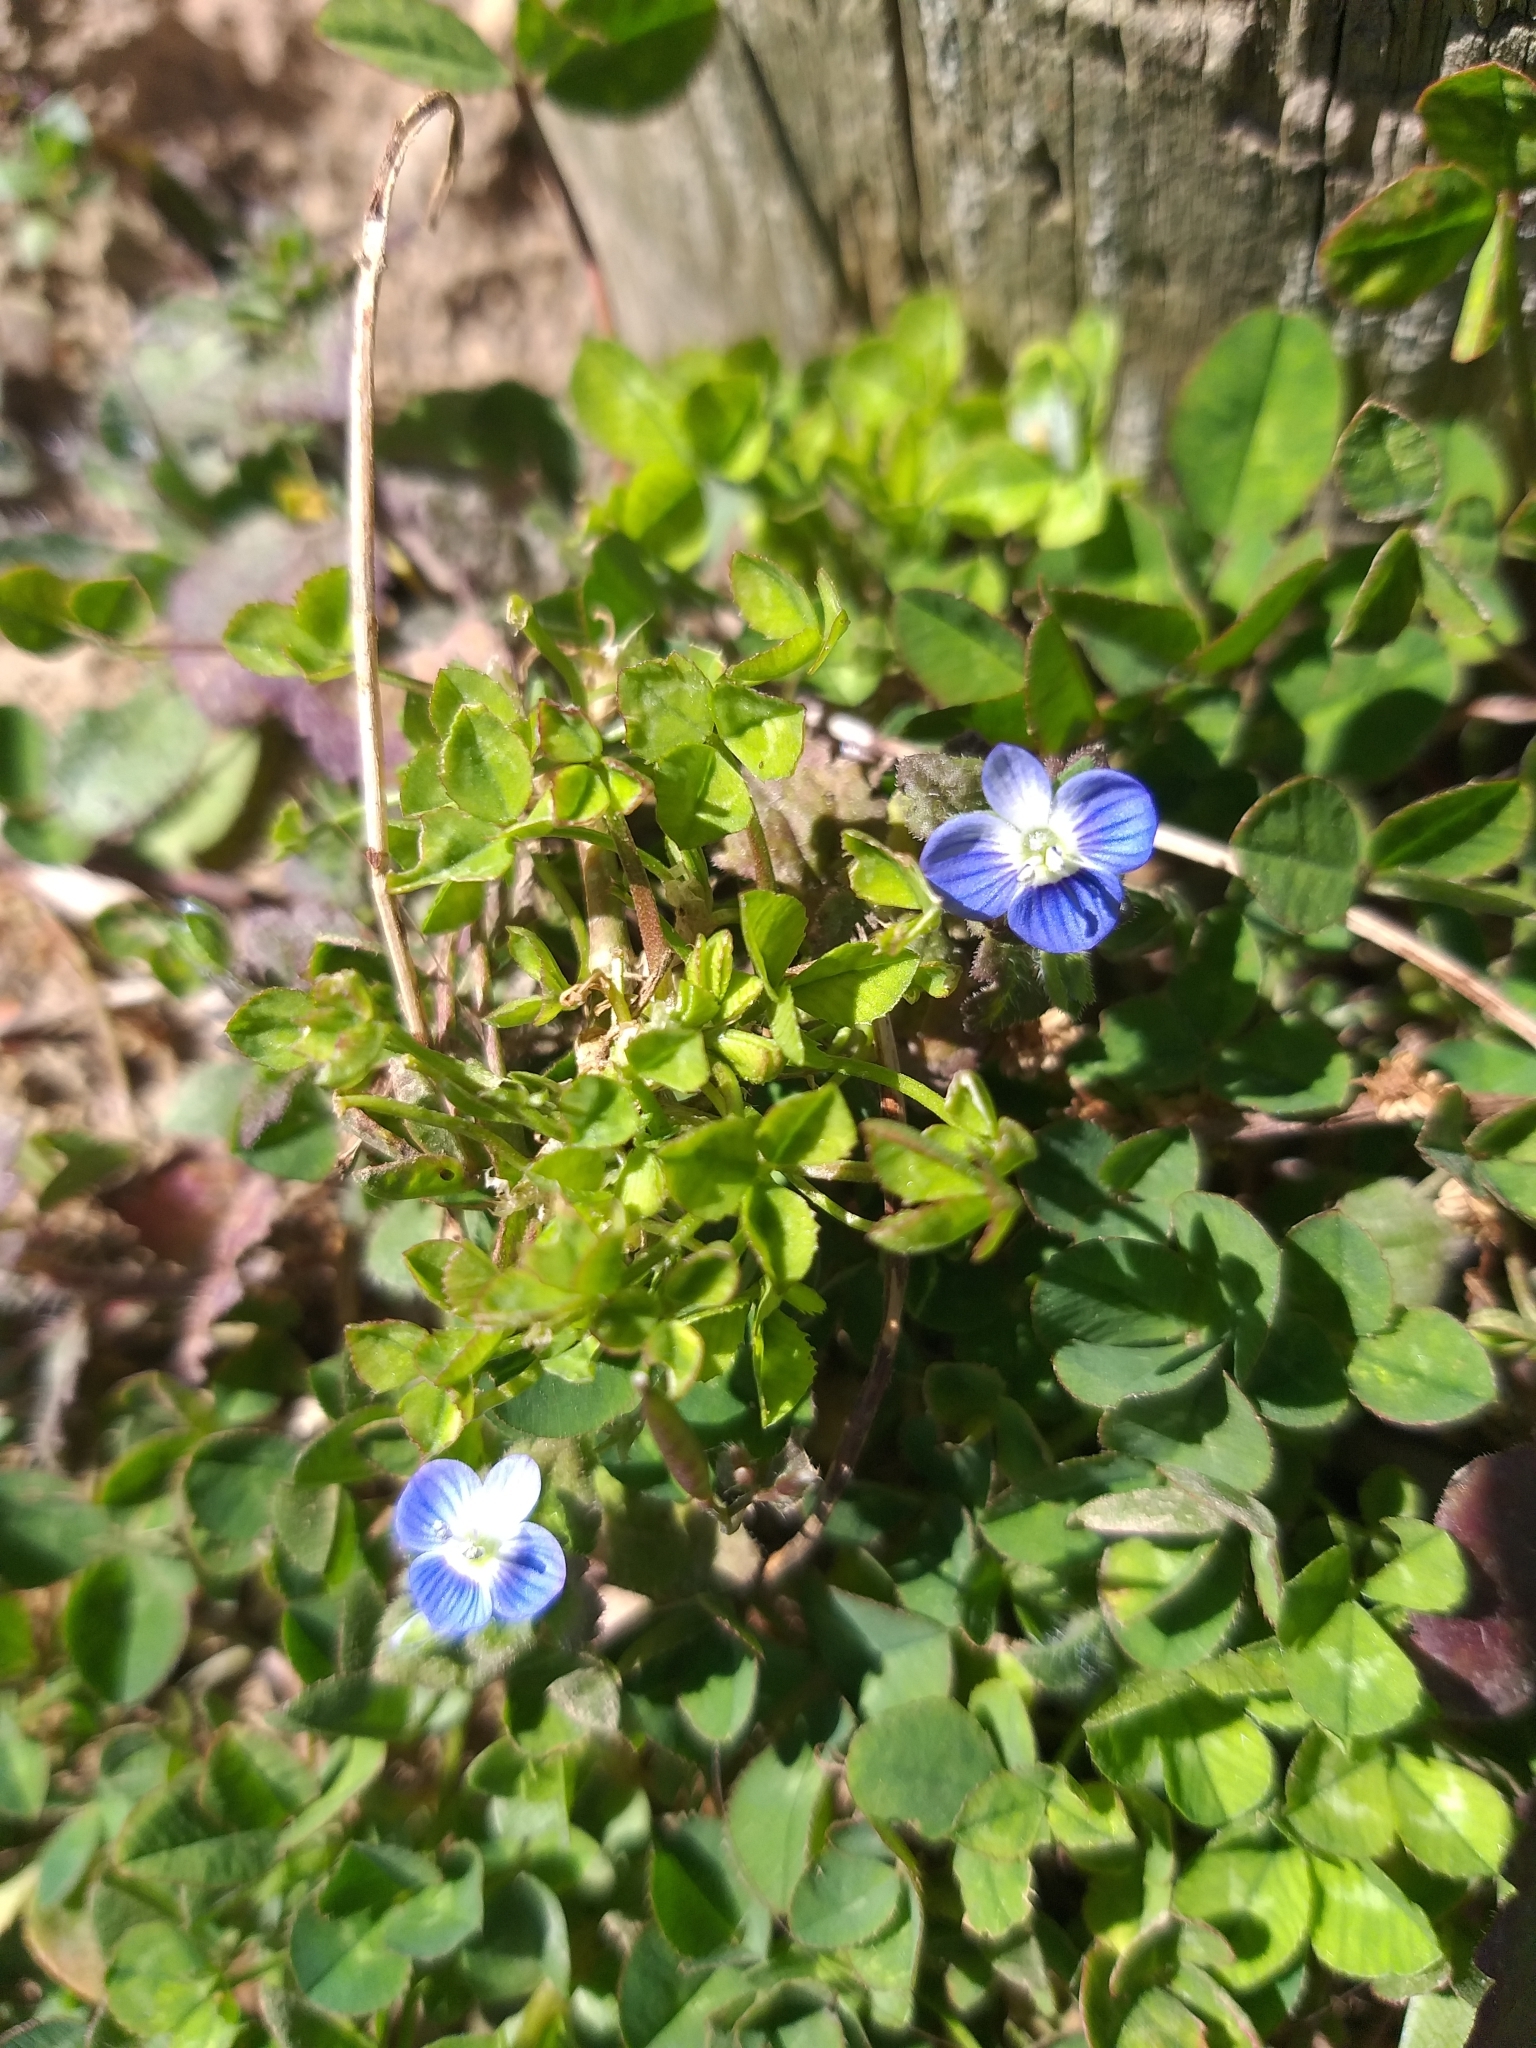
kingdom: Plantae
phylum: Tracheophyta
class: Magnoliopsida
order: Lamiales
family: Plantaginaceae
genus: Veronica
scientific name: Veronica persica
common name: Common field-speedwell
